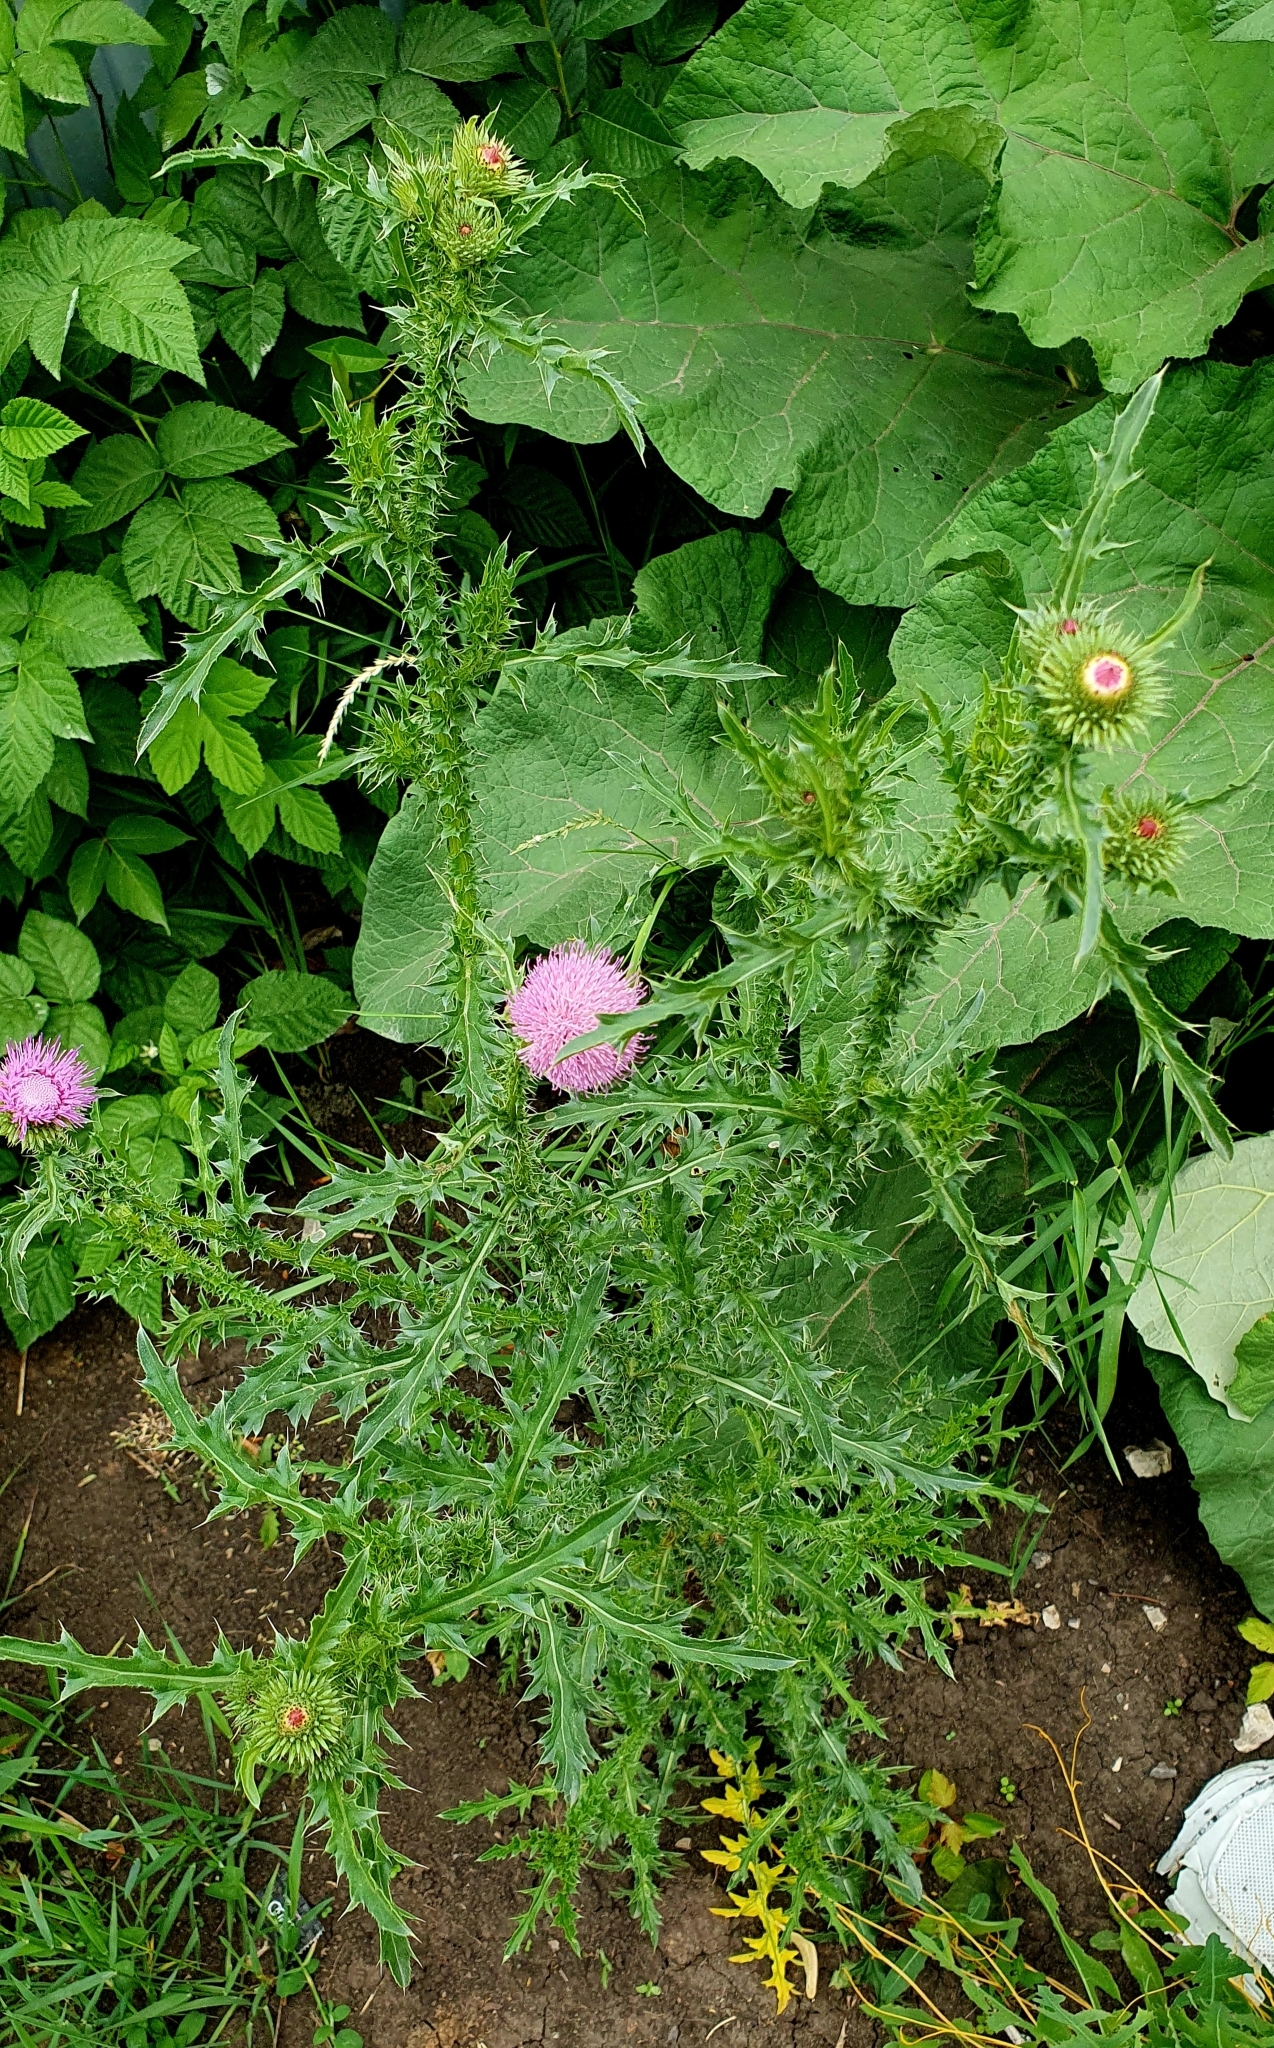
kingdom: Plantae
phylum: Tracheophyta
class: Magnoliopsida
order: Asterales
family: Asteraceae
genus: Carduus
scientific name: Carduus acanthoides
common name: Plumeless thistle
